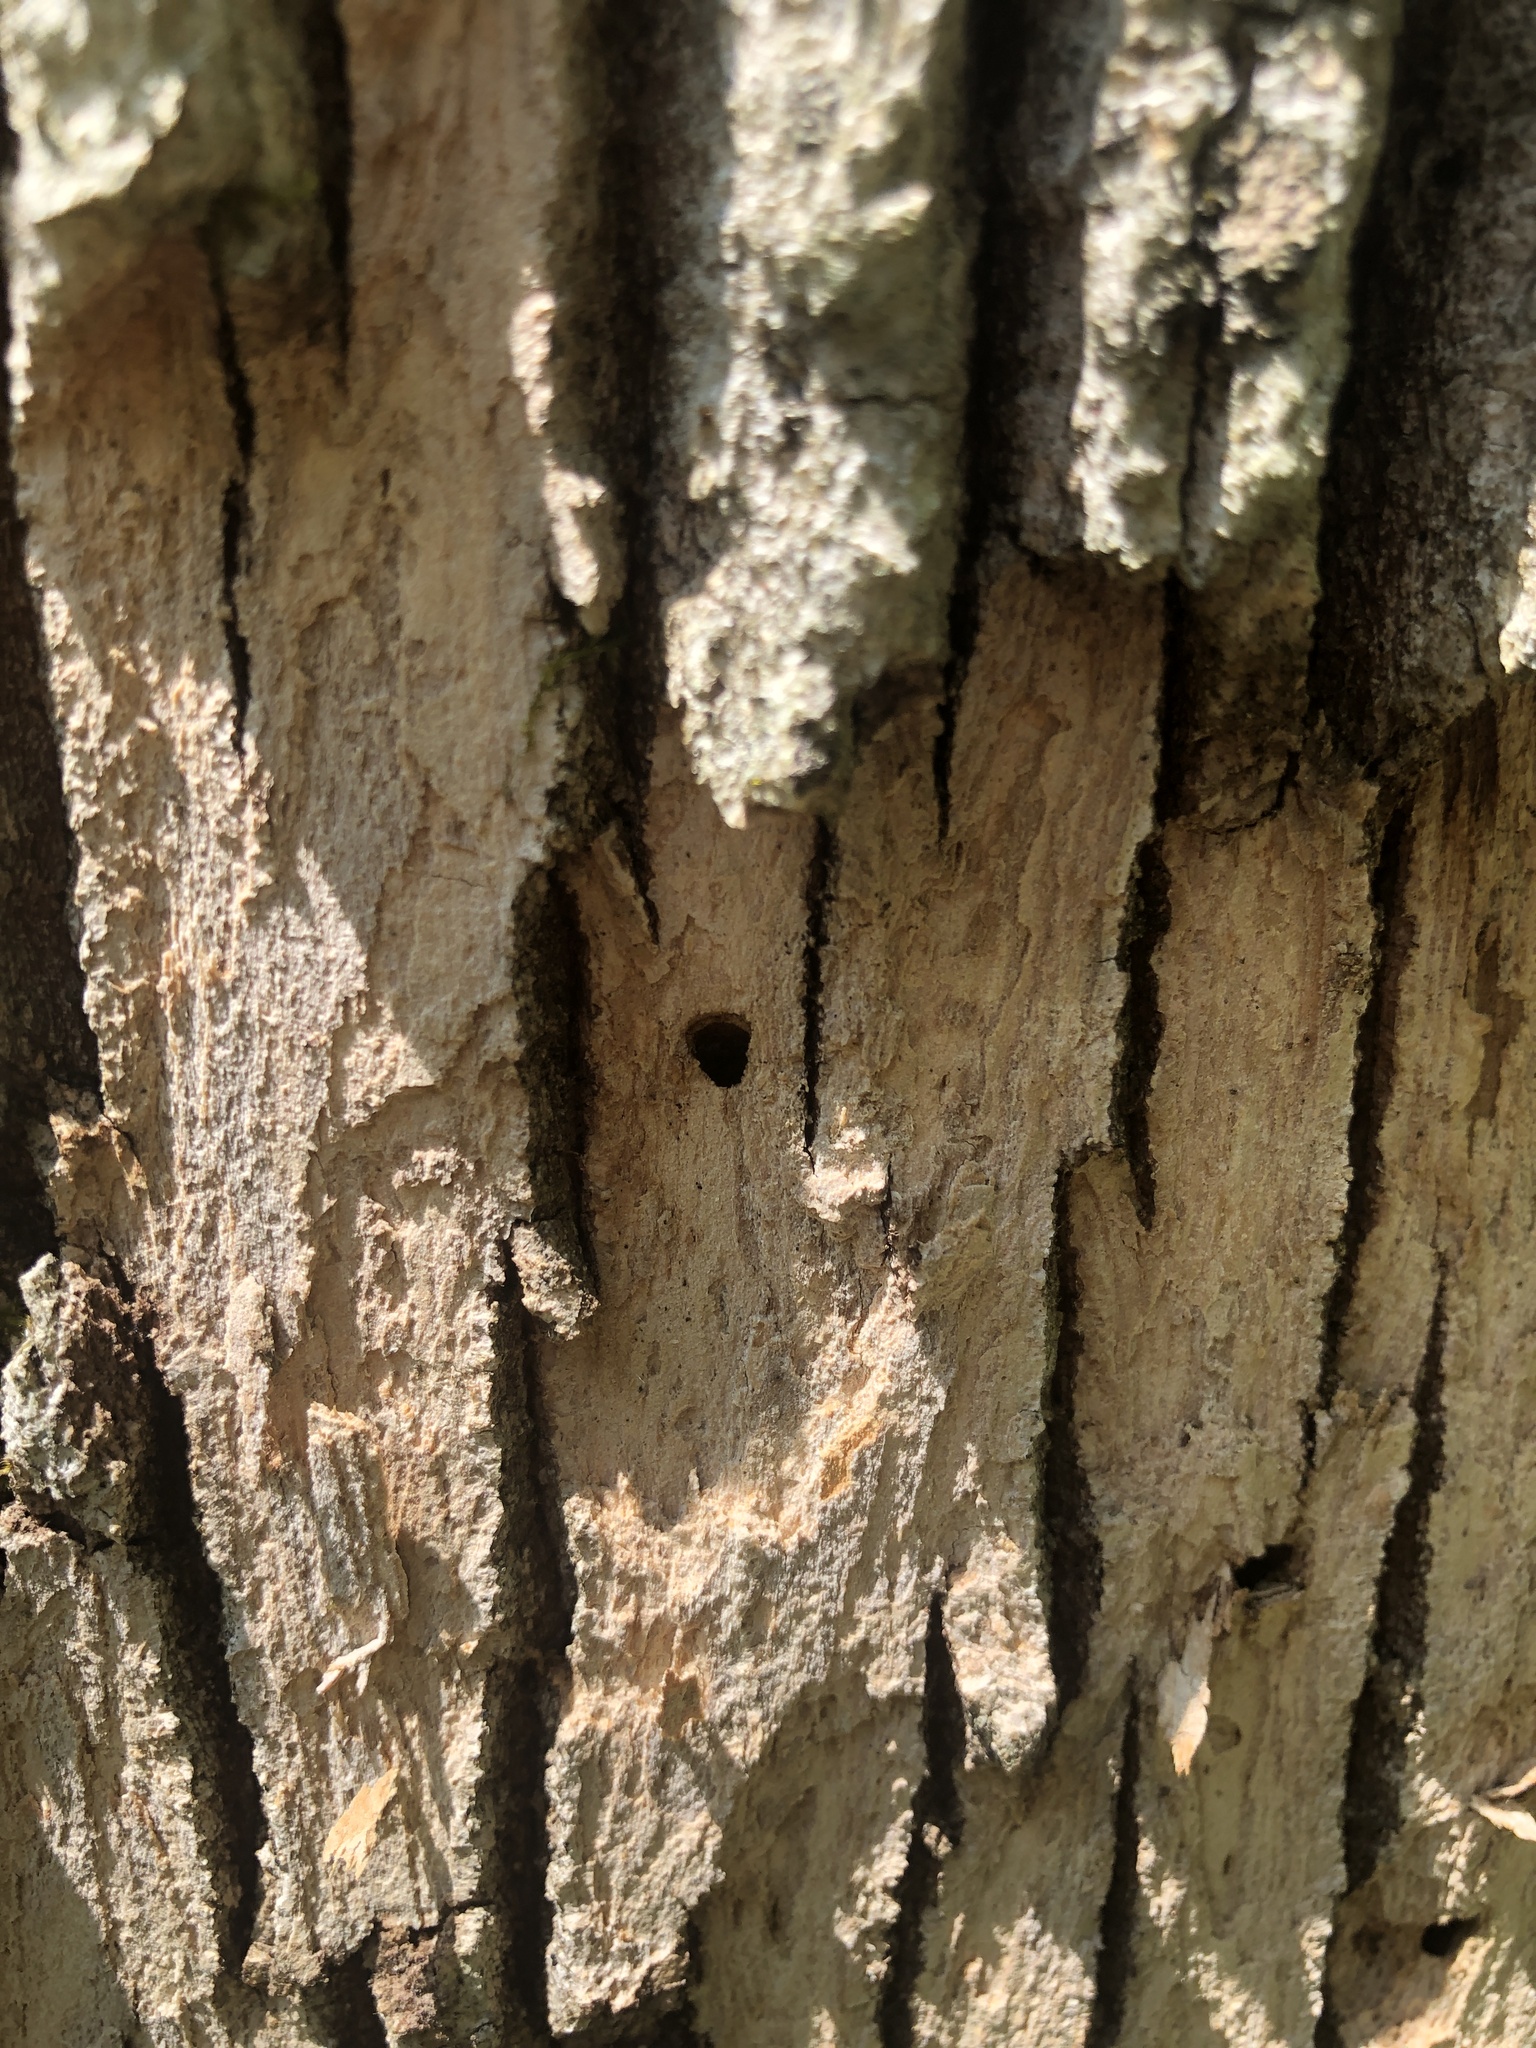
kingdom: Animalia
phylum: Arthropoda
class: Insecta
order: Coleoptera
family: Buprestidae
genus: Agrilus
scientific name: Agrilus planipennis
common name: Emerald ash borer
